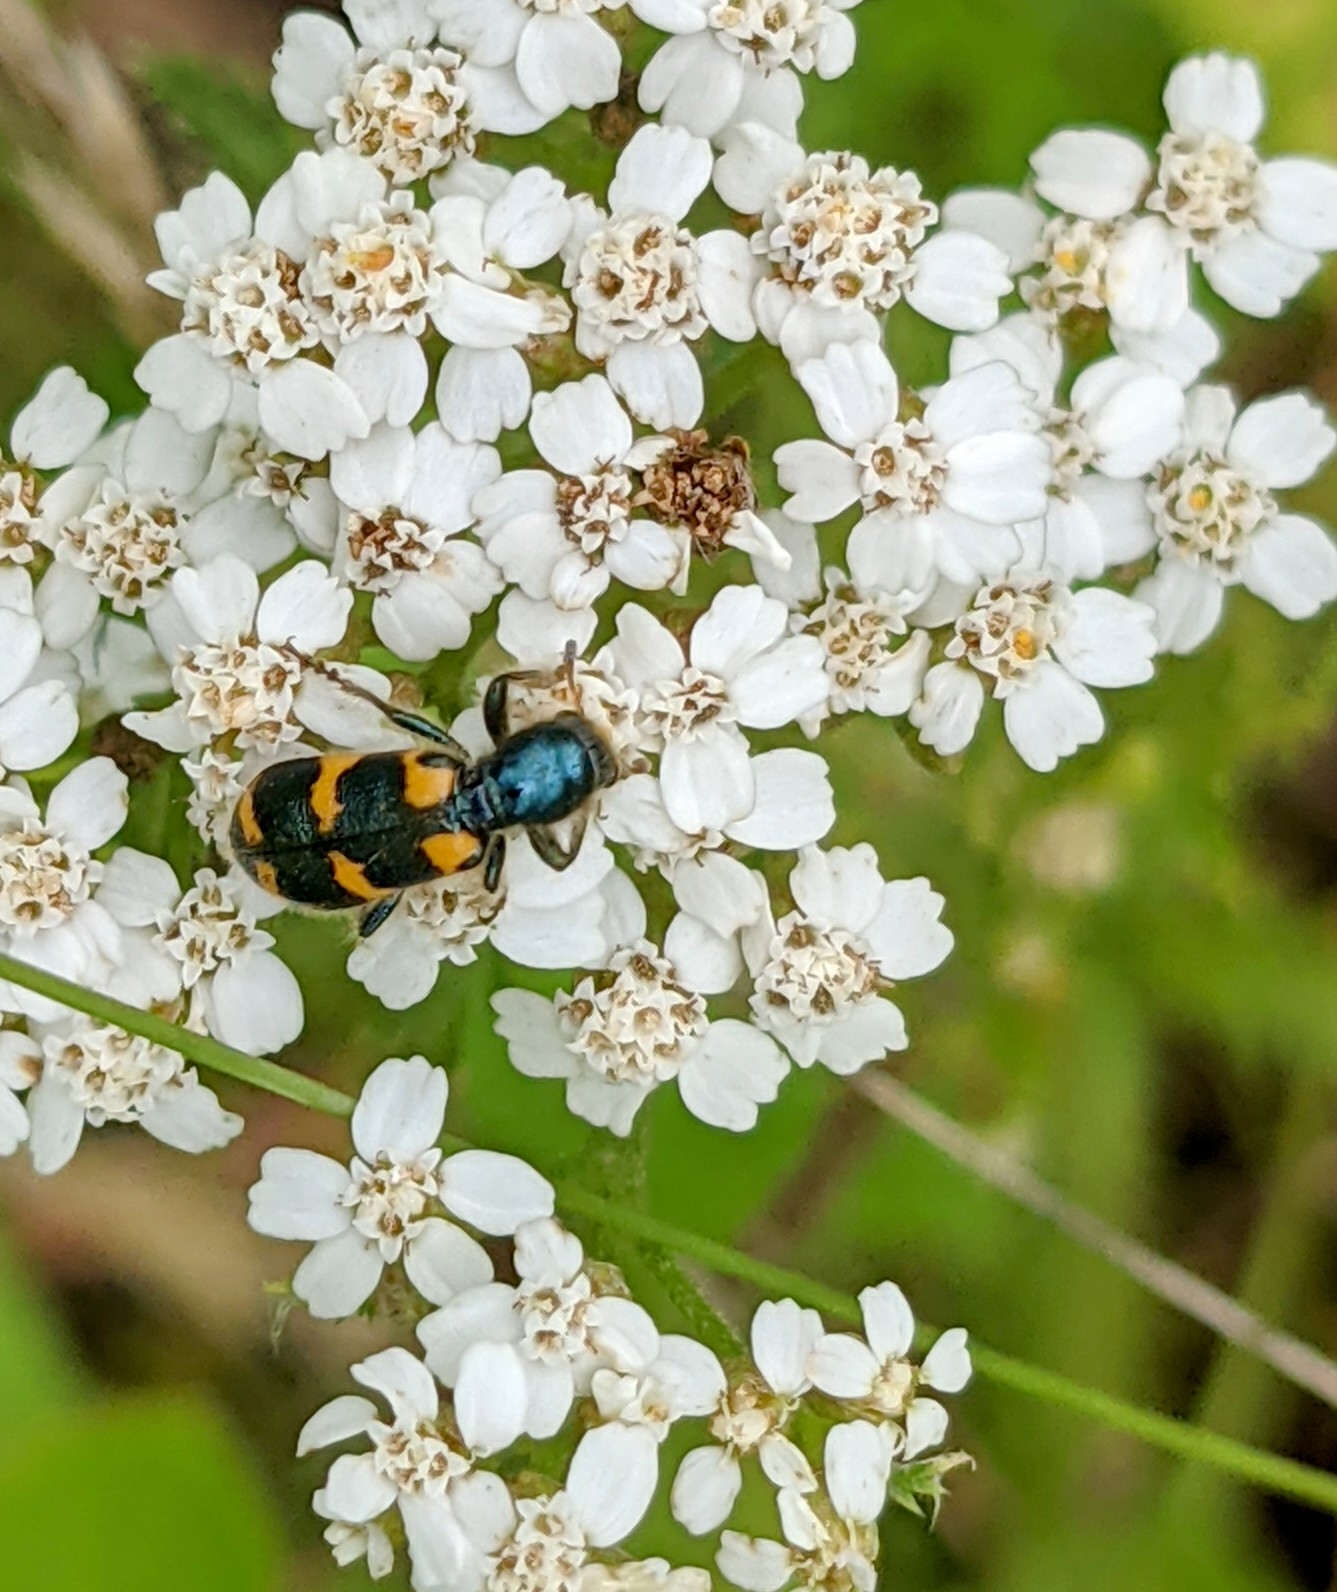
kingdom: Animalia
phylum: Arthropoda
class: Insecta
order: Coleoptera
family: Cleridae
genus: Trichodes
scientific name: Trichodes nutalli
